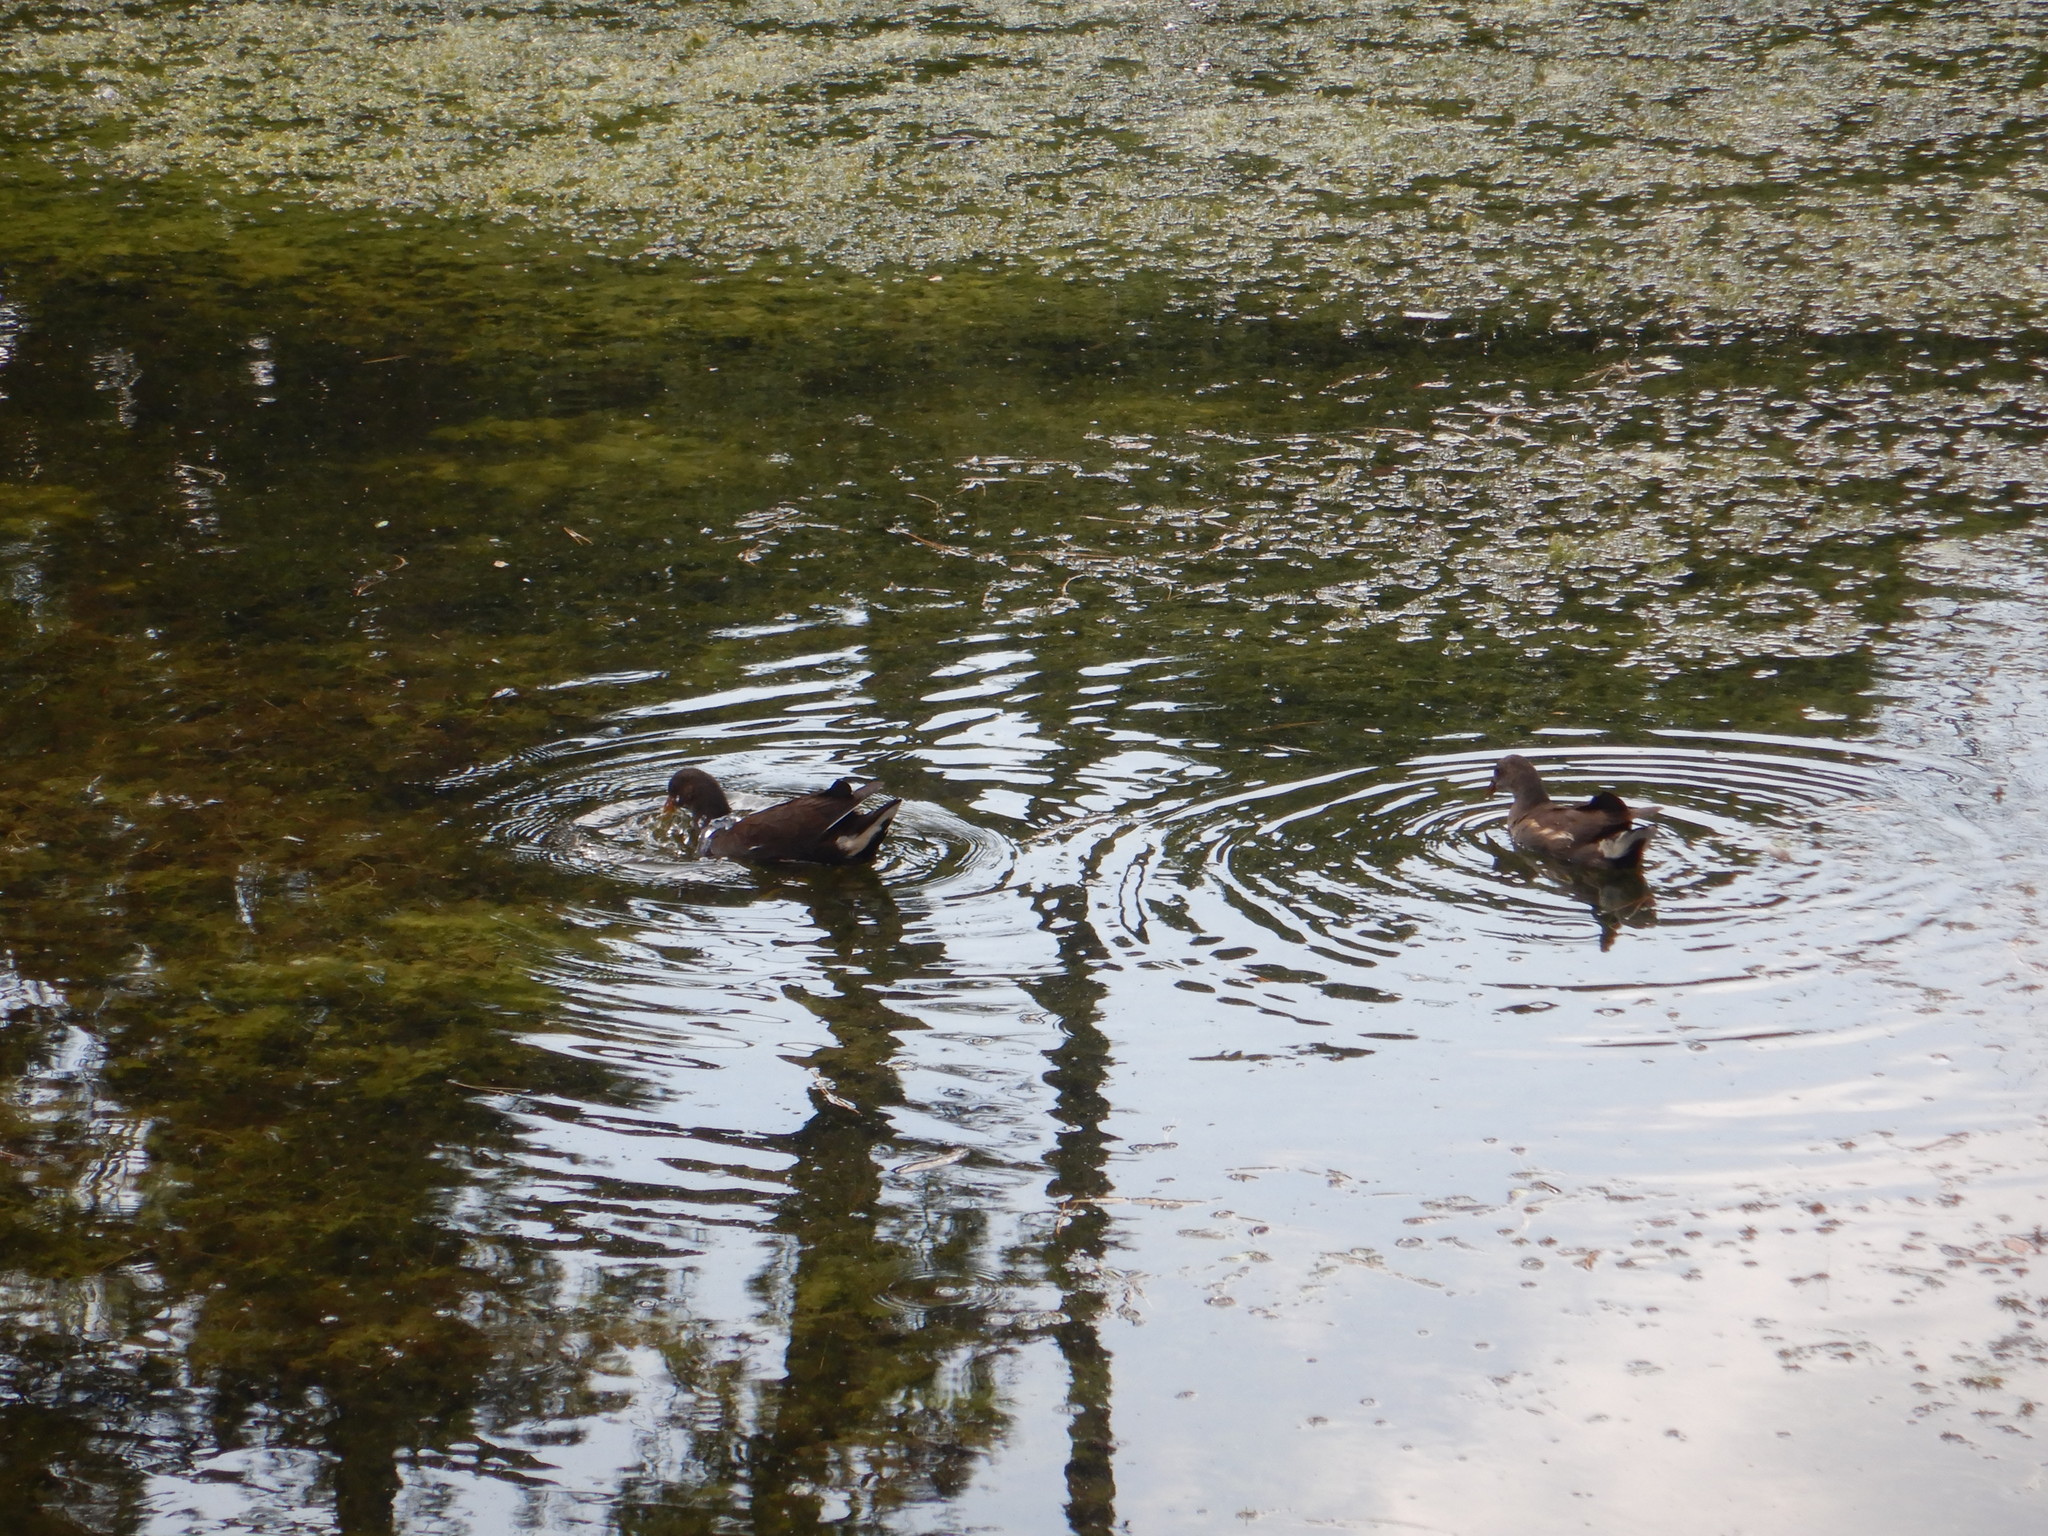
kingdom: Animalia
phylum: Chordata
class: Aves
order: Gruiformes
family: Rallidae
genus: Gallinula
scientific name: Gallinula chloropus
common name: Common moorhen
